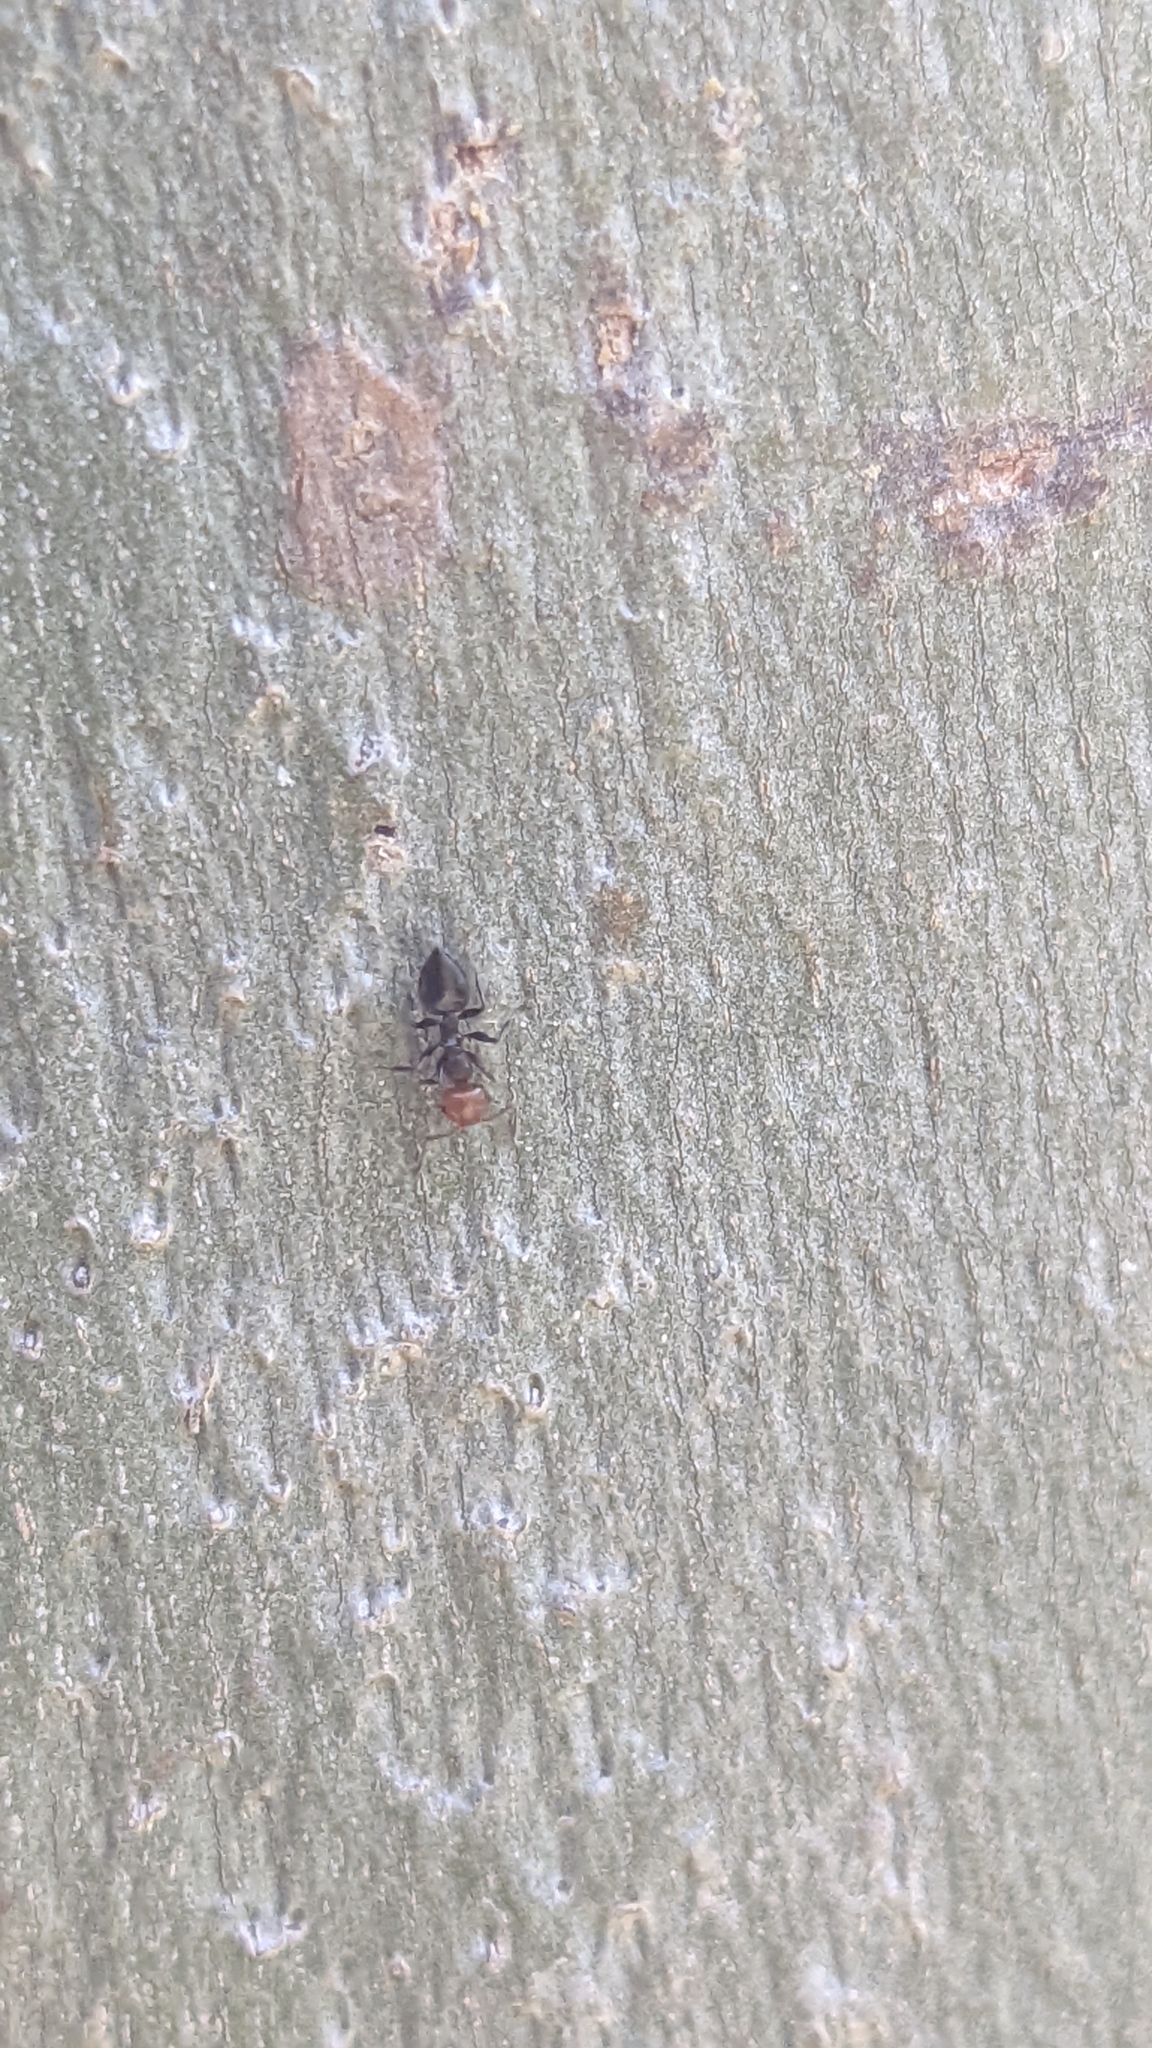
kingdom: Animalia
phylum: Arthropoda
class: Insecta
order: Hymenoptera
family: Formicidae
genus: Crematogaster
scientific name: Crematogaster scutellaris
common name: Fourmi du liège
